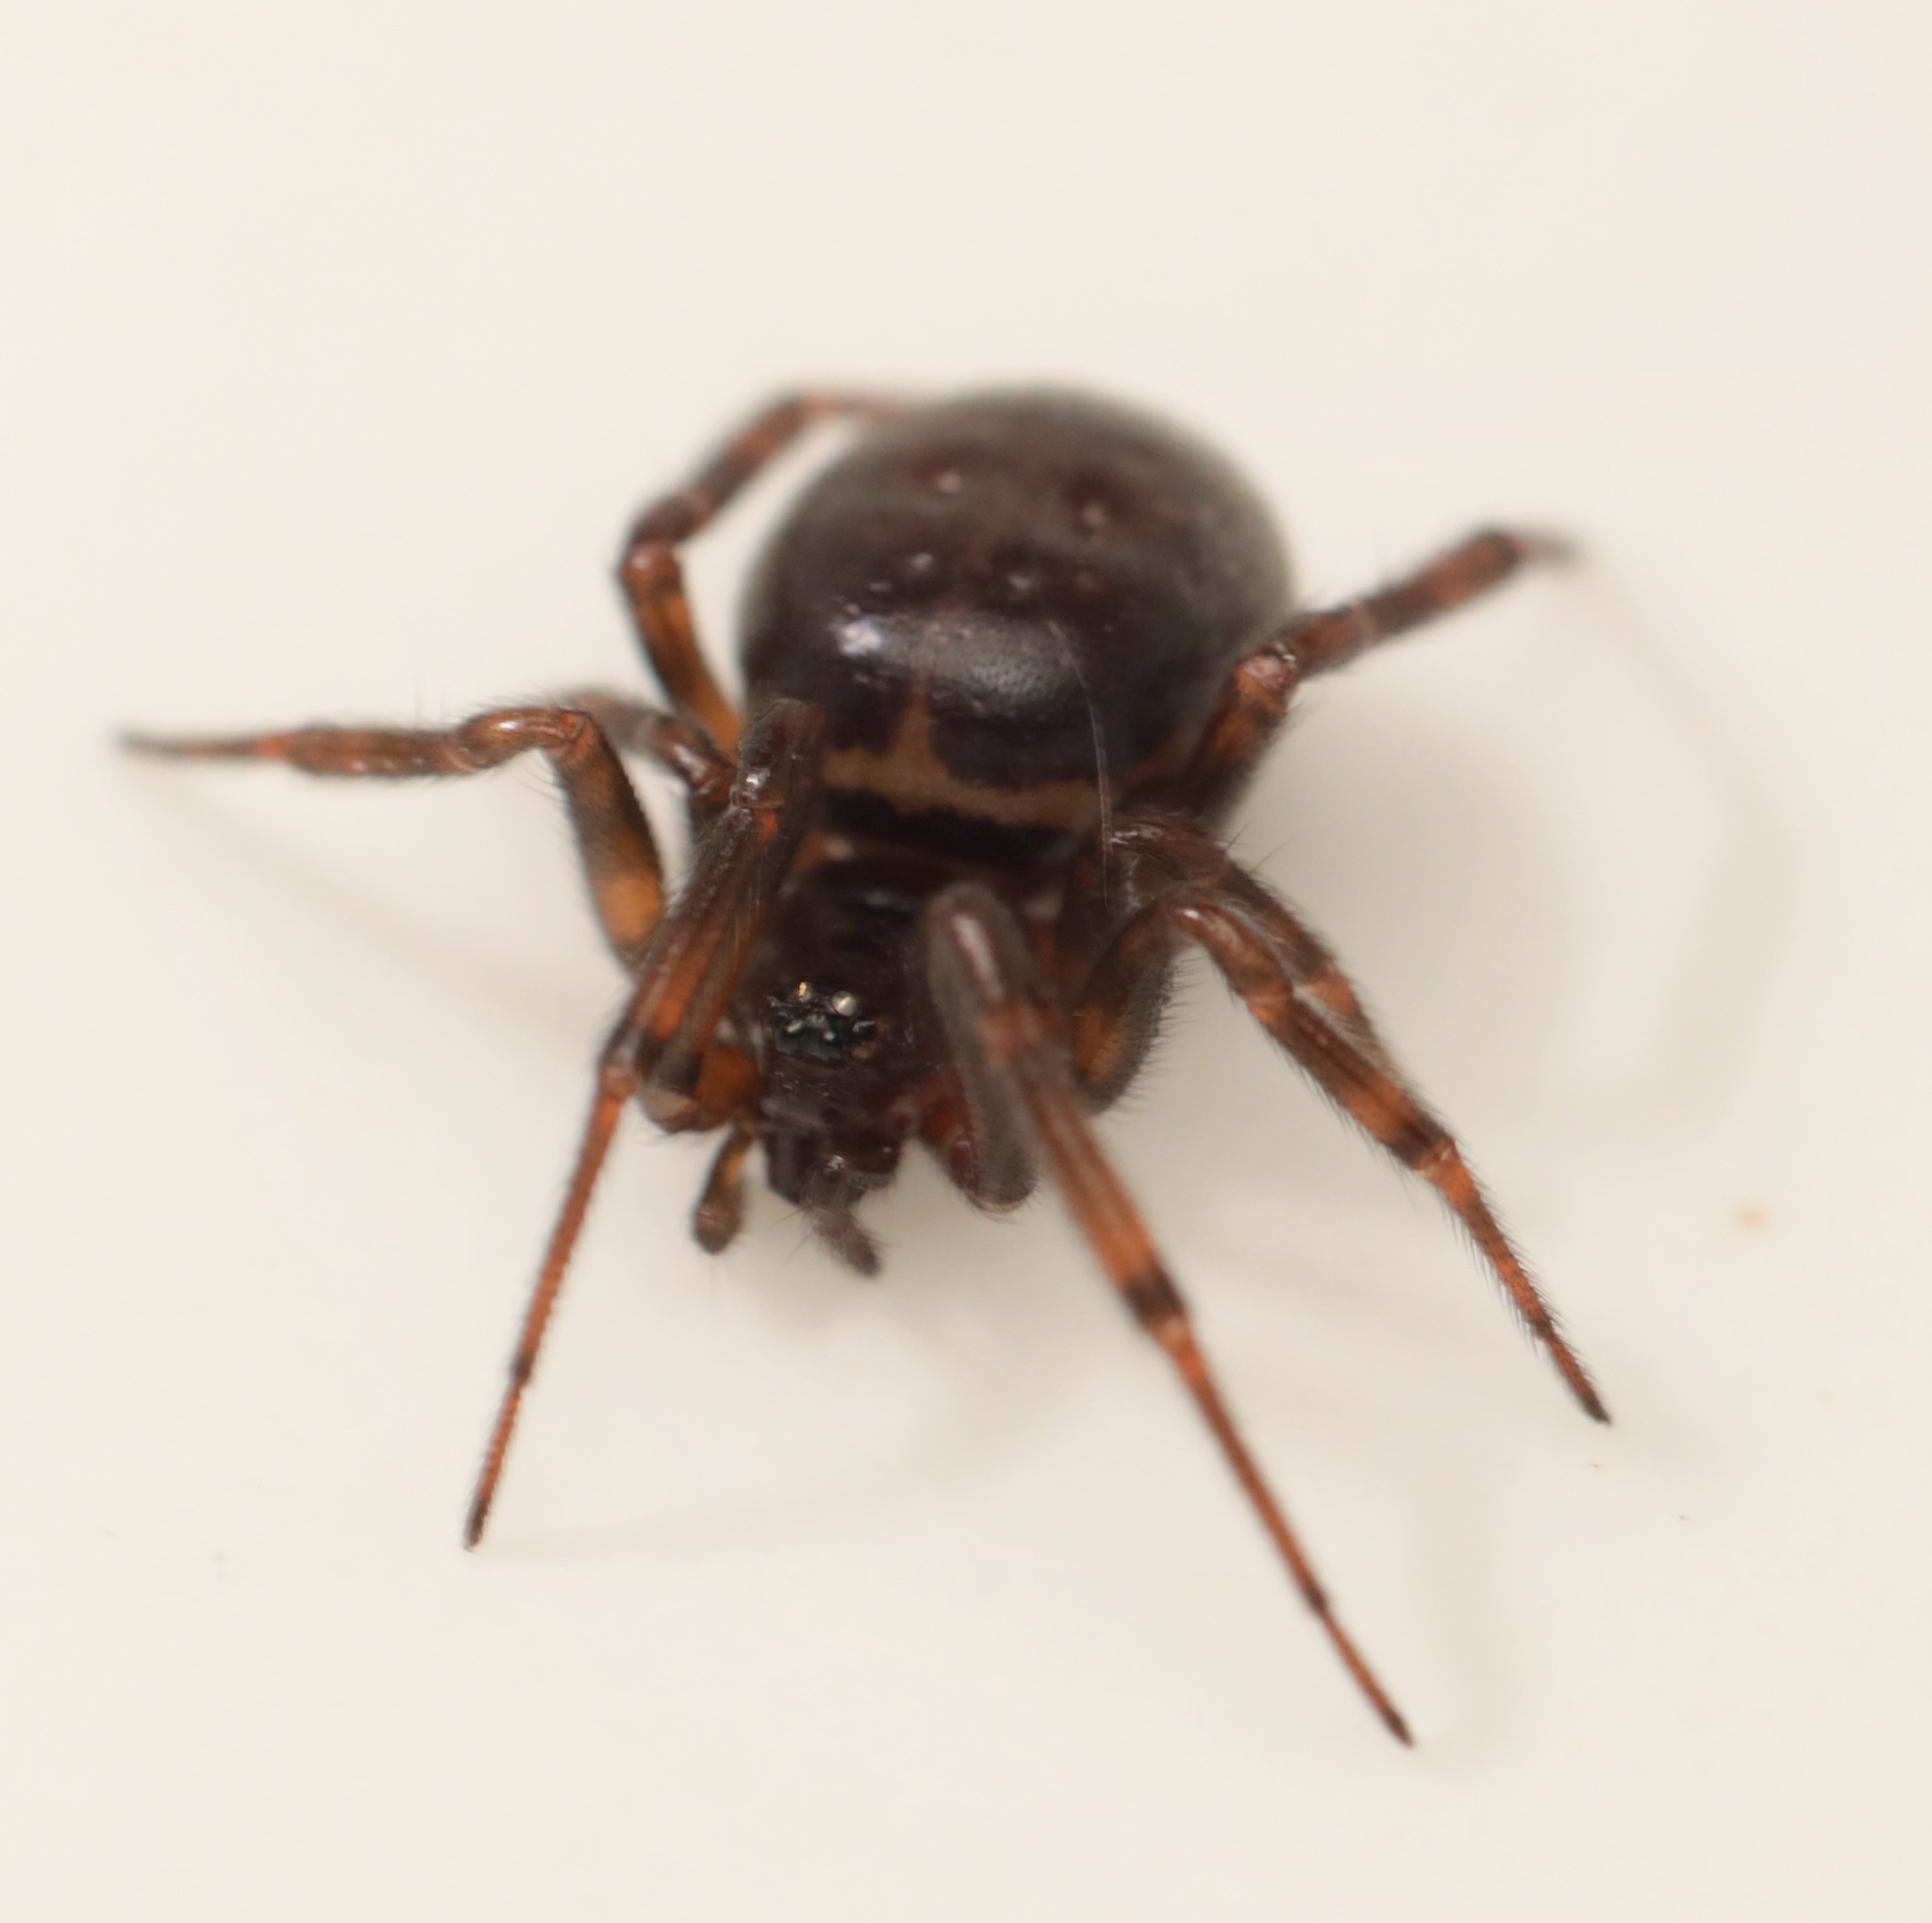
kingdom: Animalia
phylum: Arthropoda
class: Arachnida
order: Araneae
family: Theridiidae
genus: Steatoda
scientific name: Steatoda borealis
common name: Boreal combfoot
